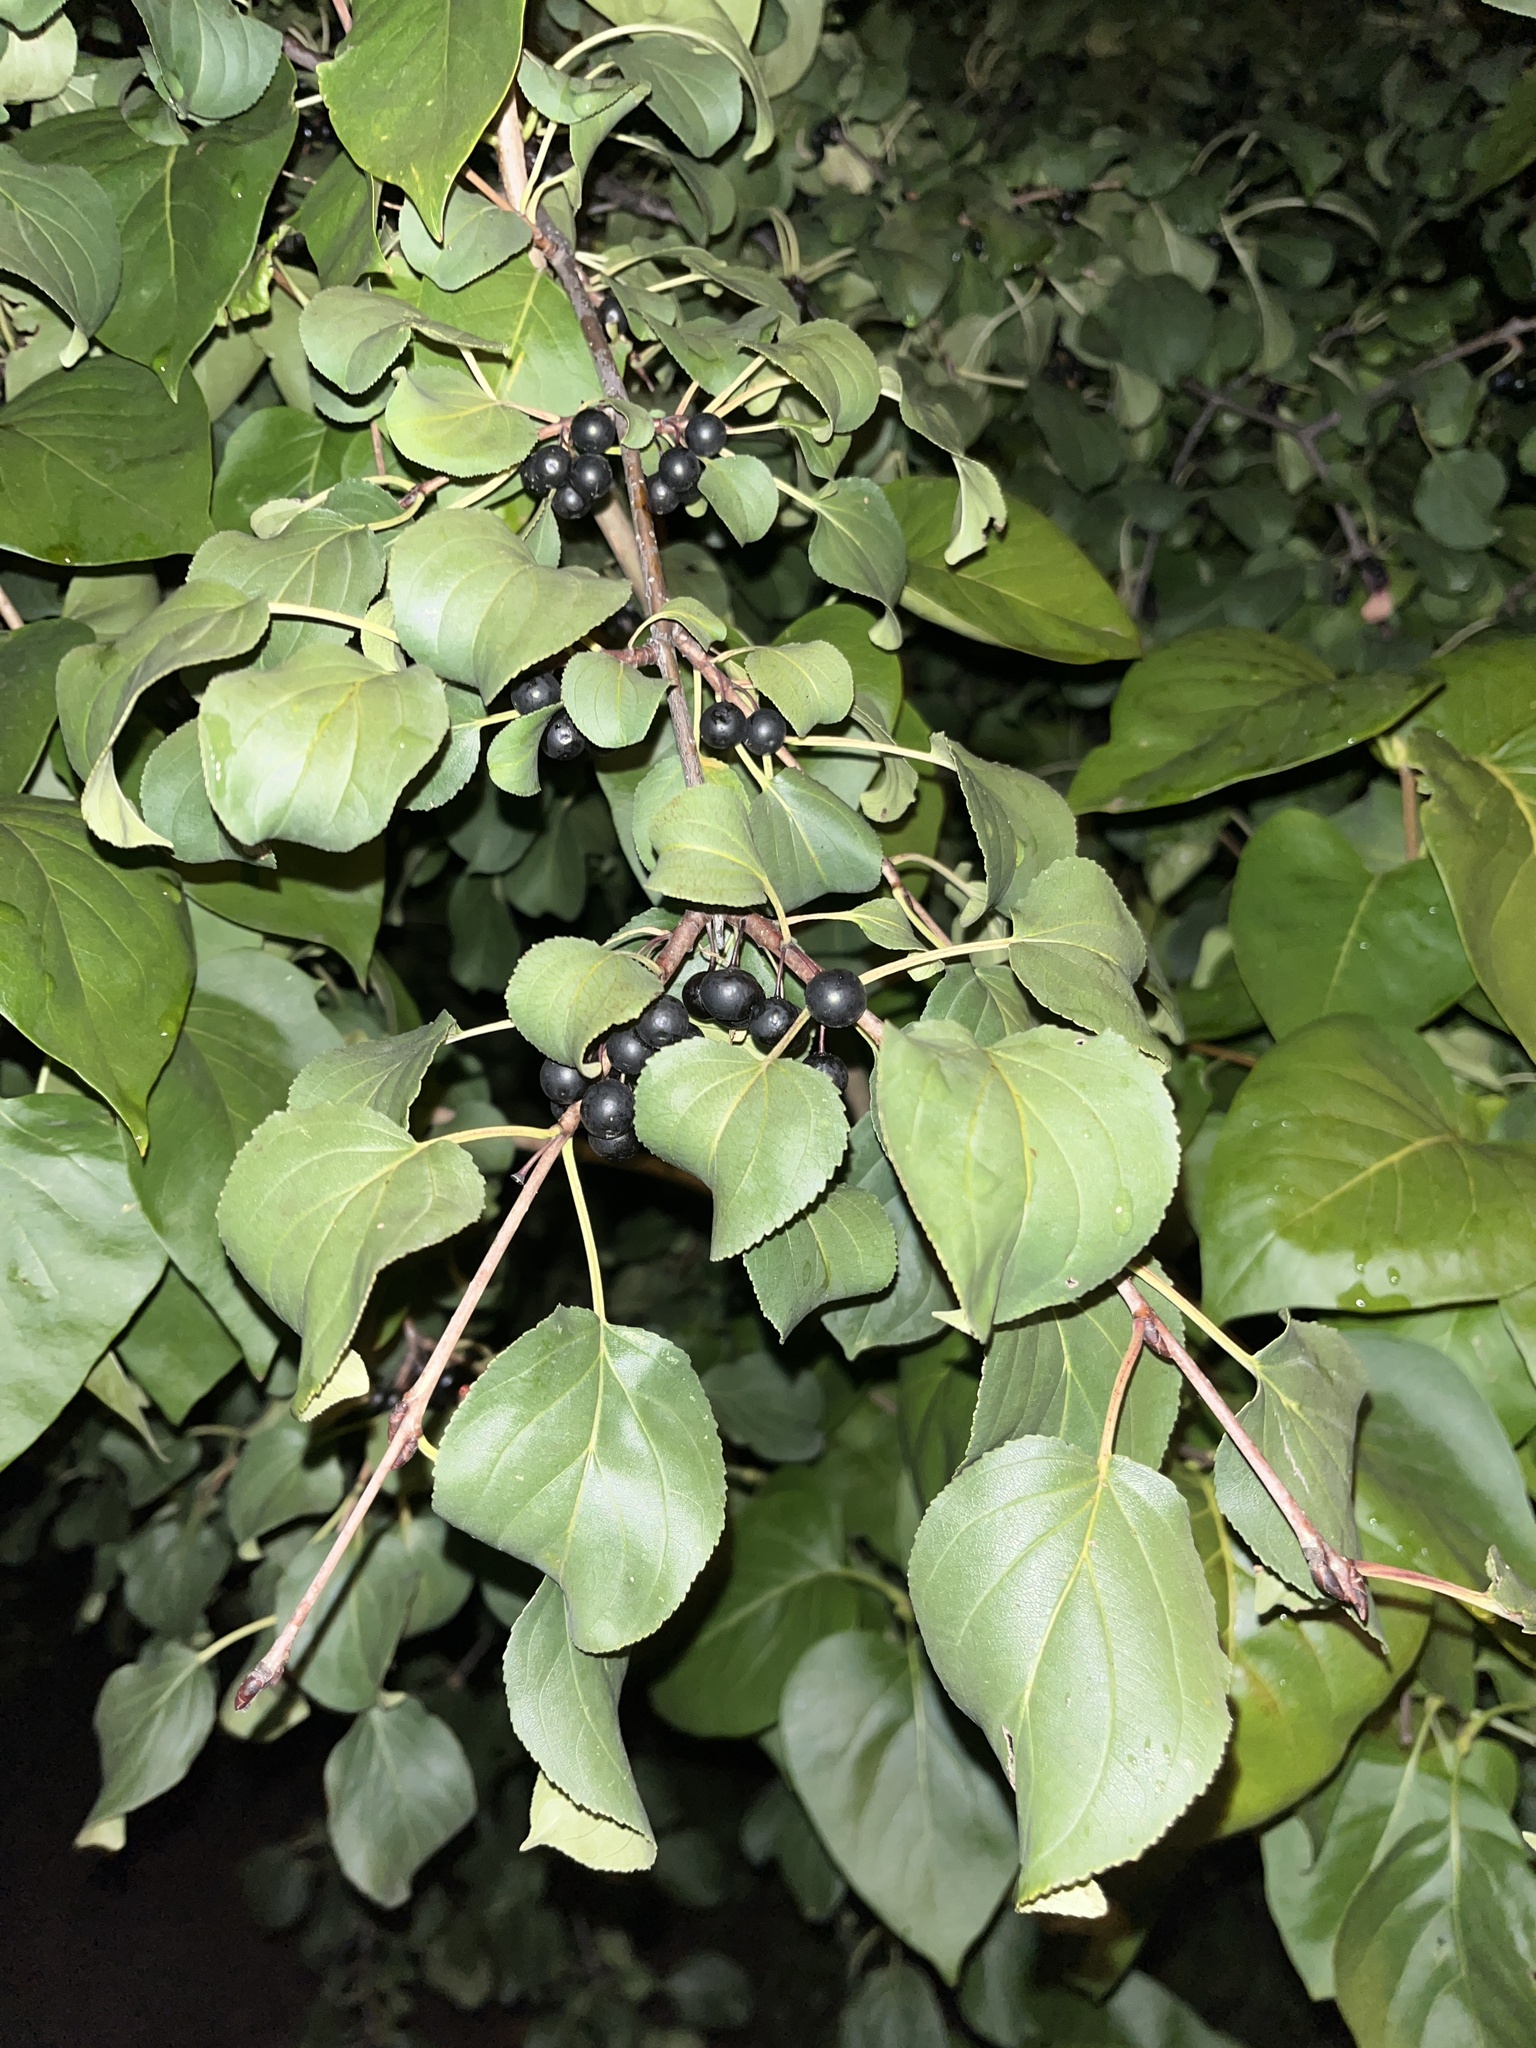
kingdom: Plantae
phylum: Tracheophyta
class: Magnoliopsida
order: Rosales
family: Rhamnaceae
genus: Rhamnus
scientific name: Rhamnus cathartica
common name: Common buckthorn
